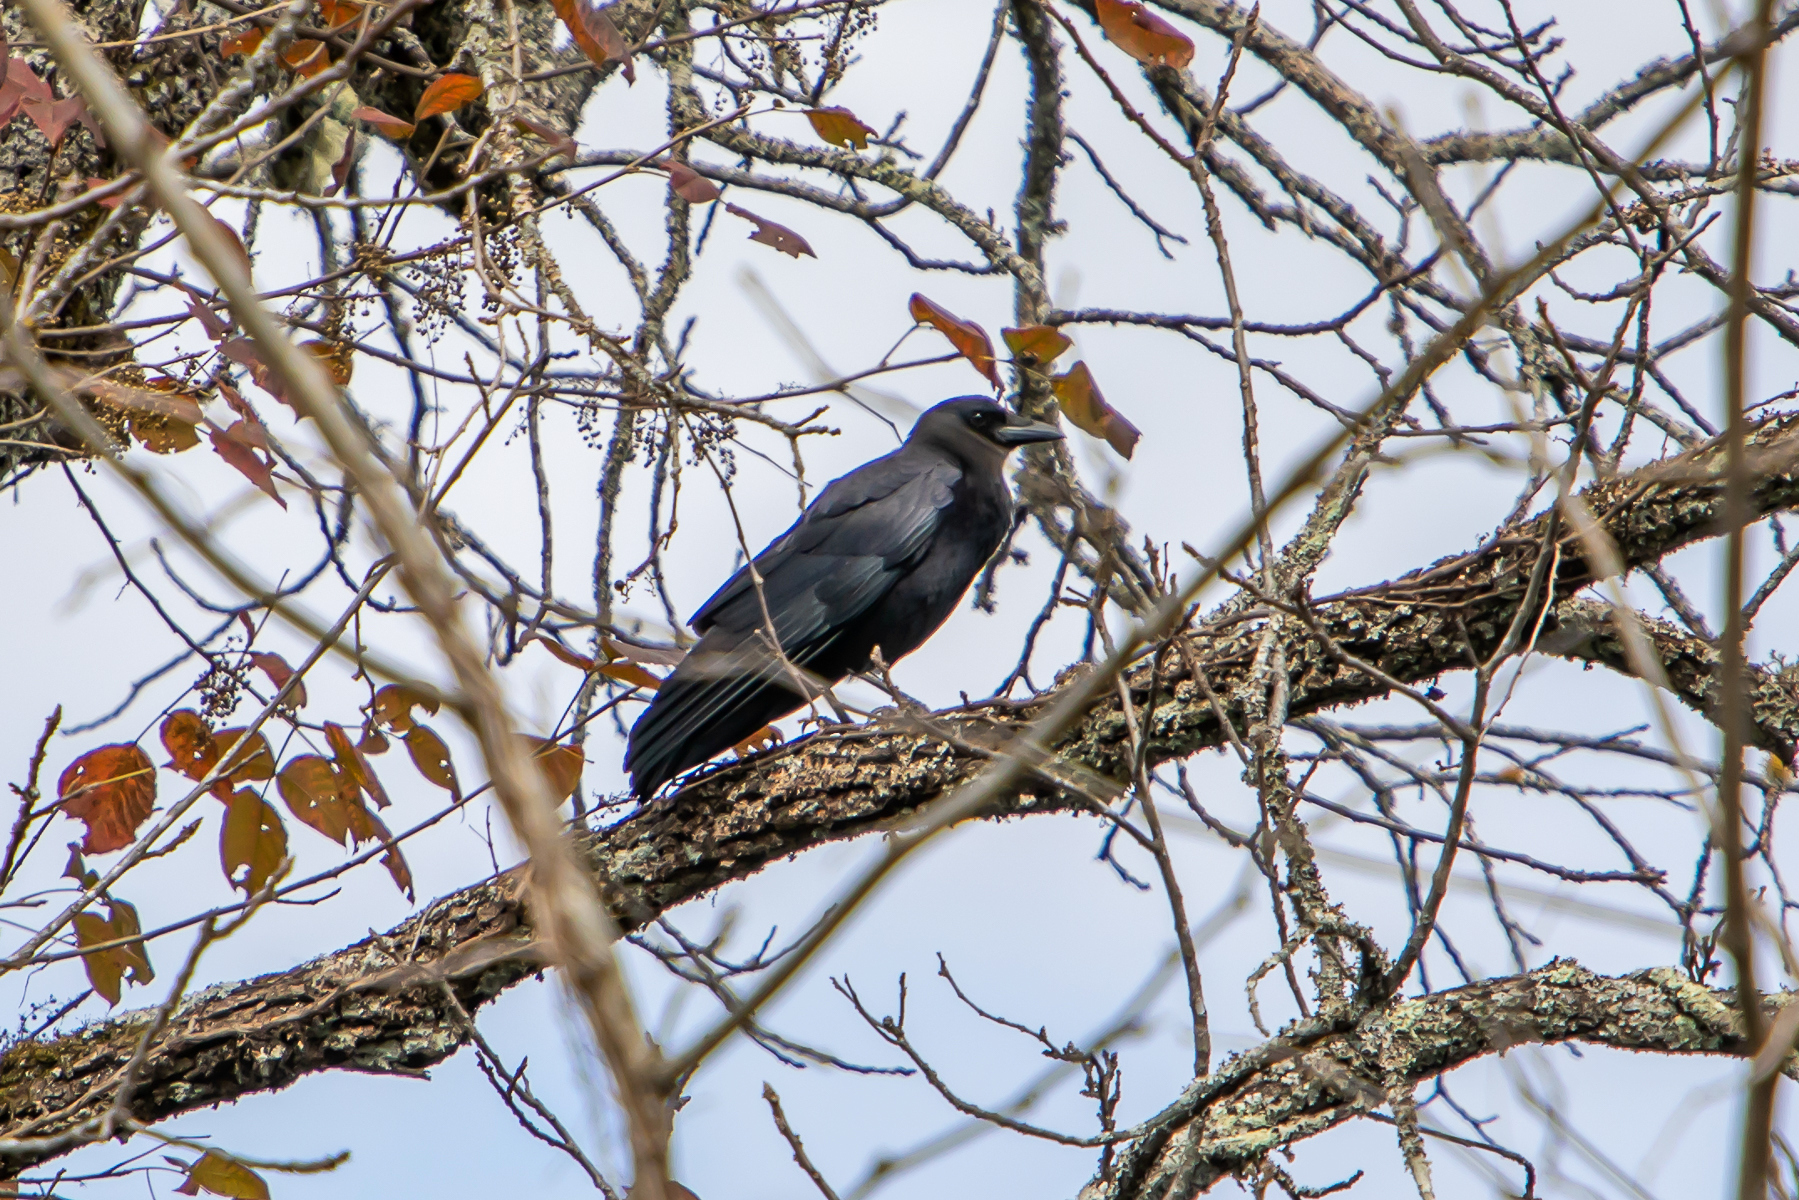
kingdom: Animalia
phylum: Chordata
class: Aves
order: Passeriformes
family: Corvidae
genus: Corvus
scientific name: Corvus brachyrhynchos
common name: American crow
